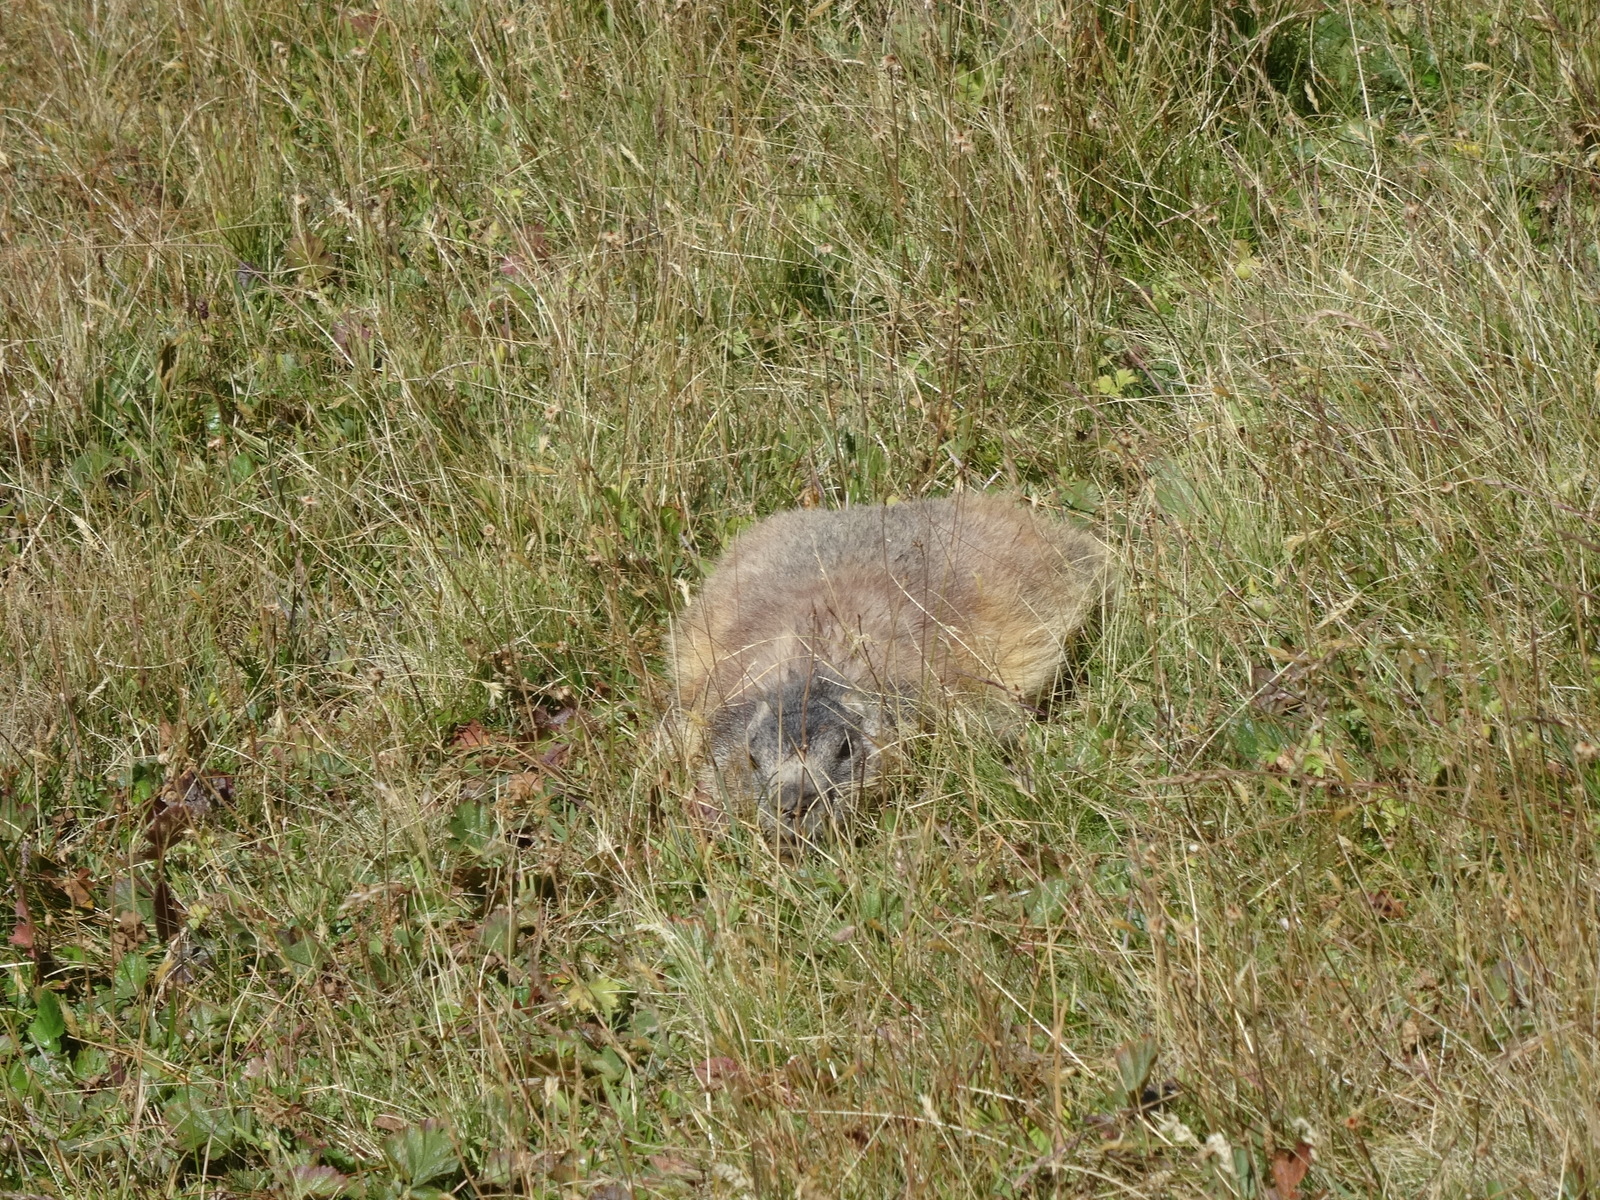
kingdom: Animalia
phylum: Chordata
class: Mammalia
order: Rodentia
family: Sciuridae
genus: Marmota
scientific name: Marmota marmota
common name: Alpine marmot
